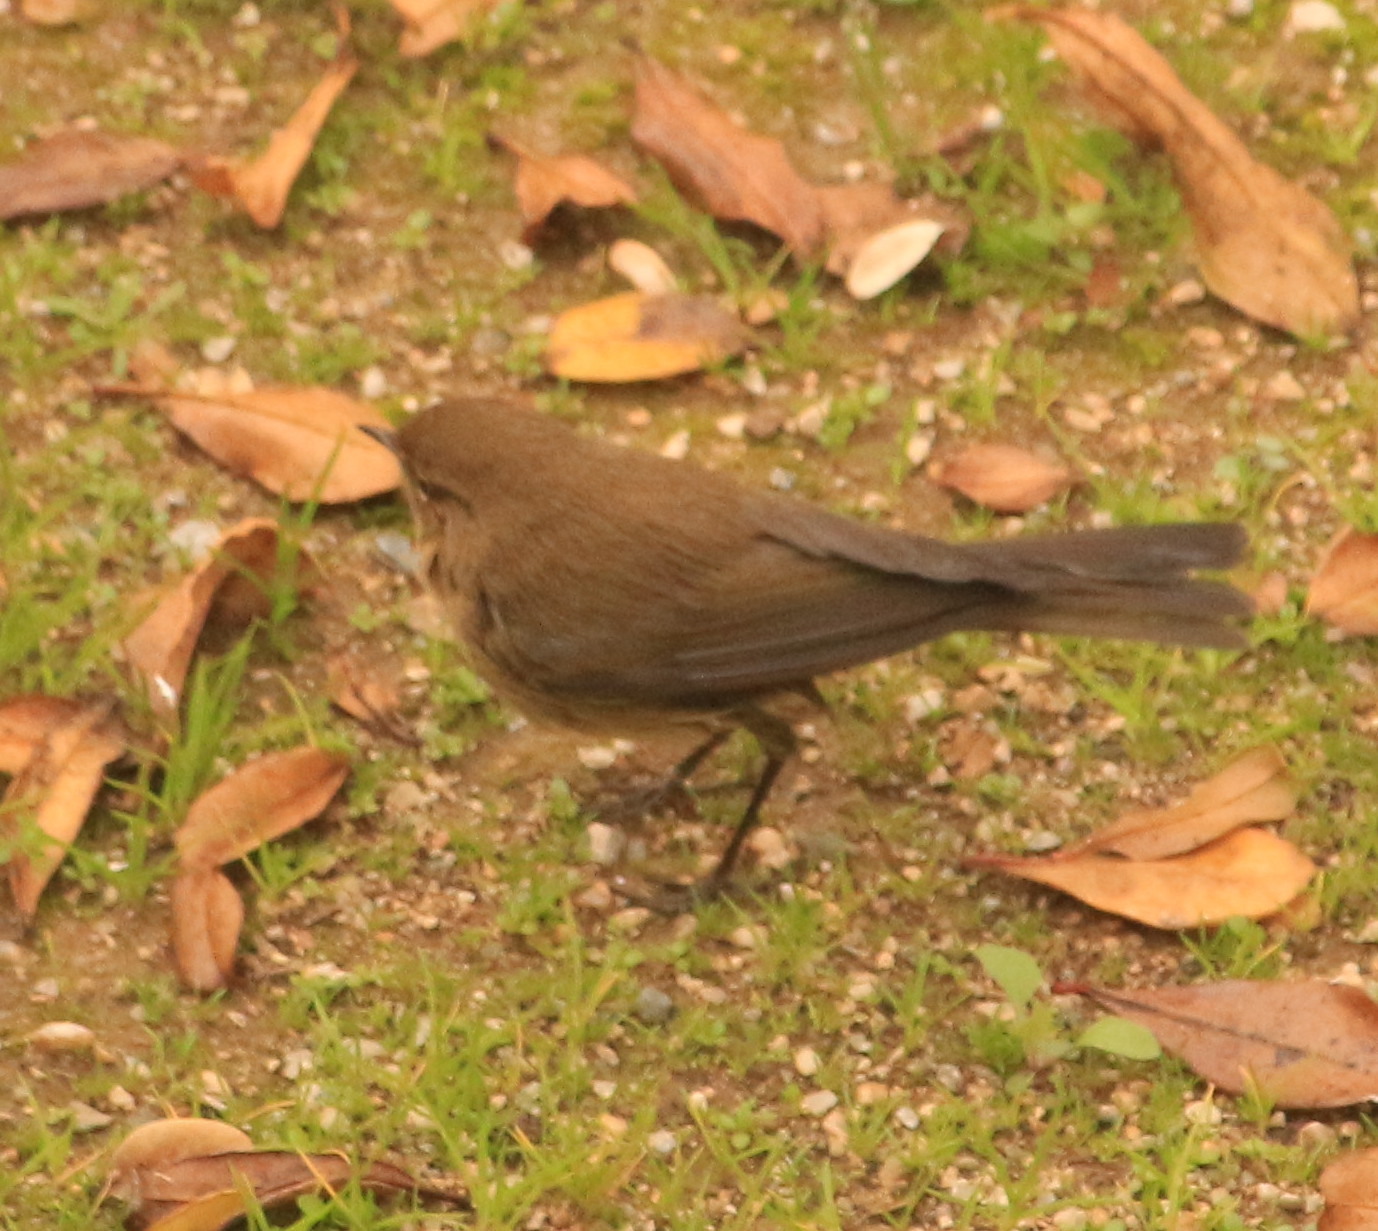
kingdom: Animalia
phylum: Chordata
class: Aves
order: Passeriformes
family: Phylloscopidae
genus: Phylloscopus
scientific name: Phylloscopus collybita
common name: Common chiffchaff
